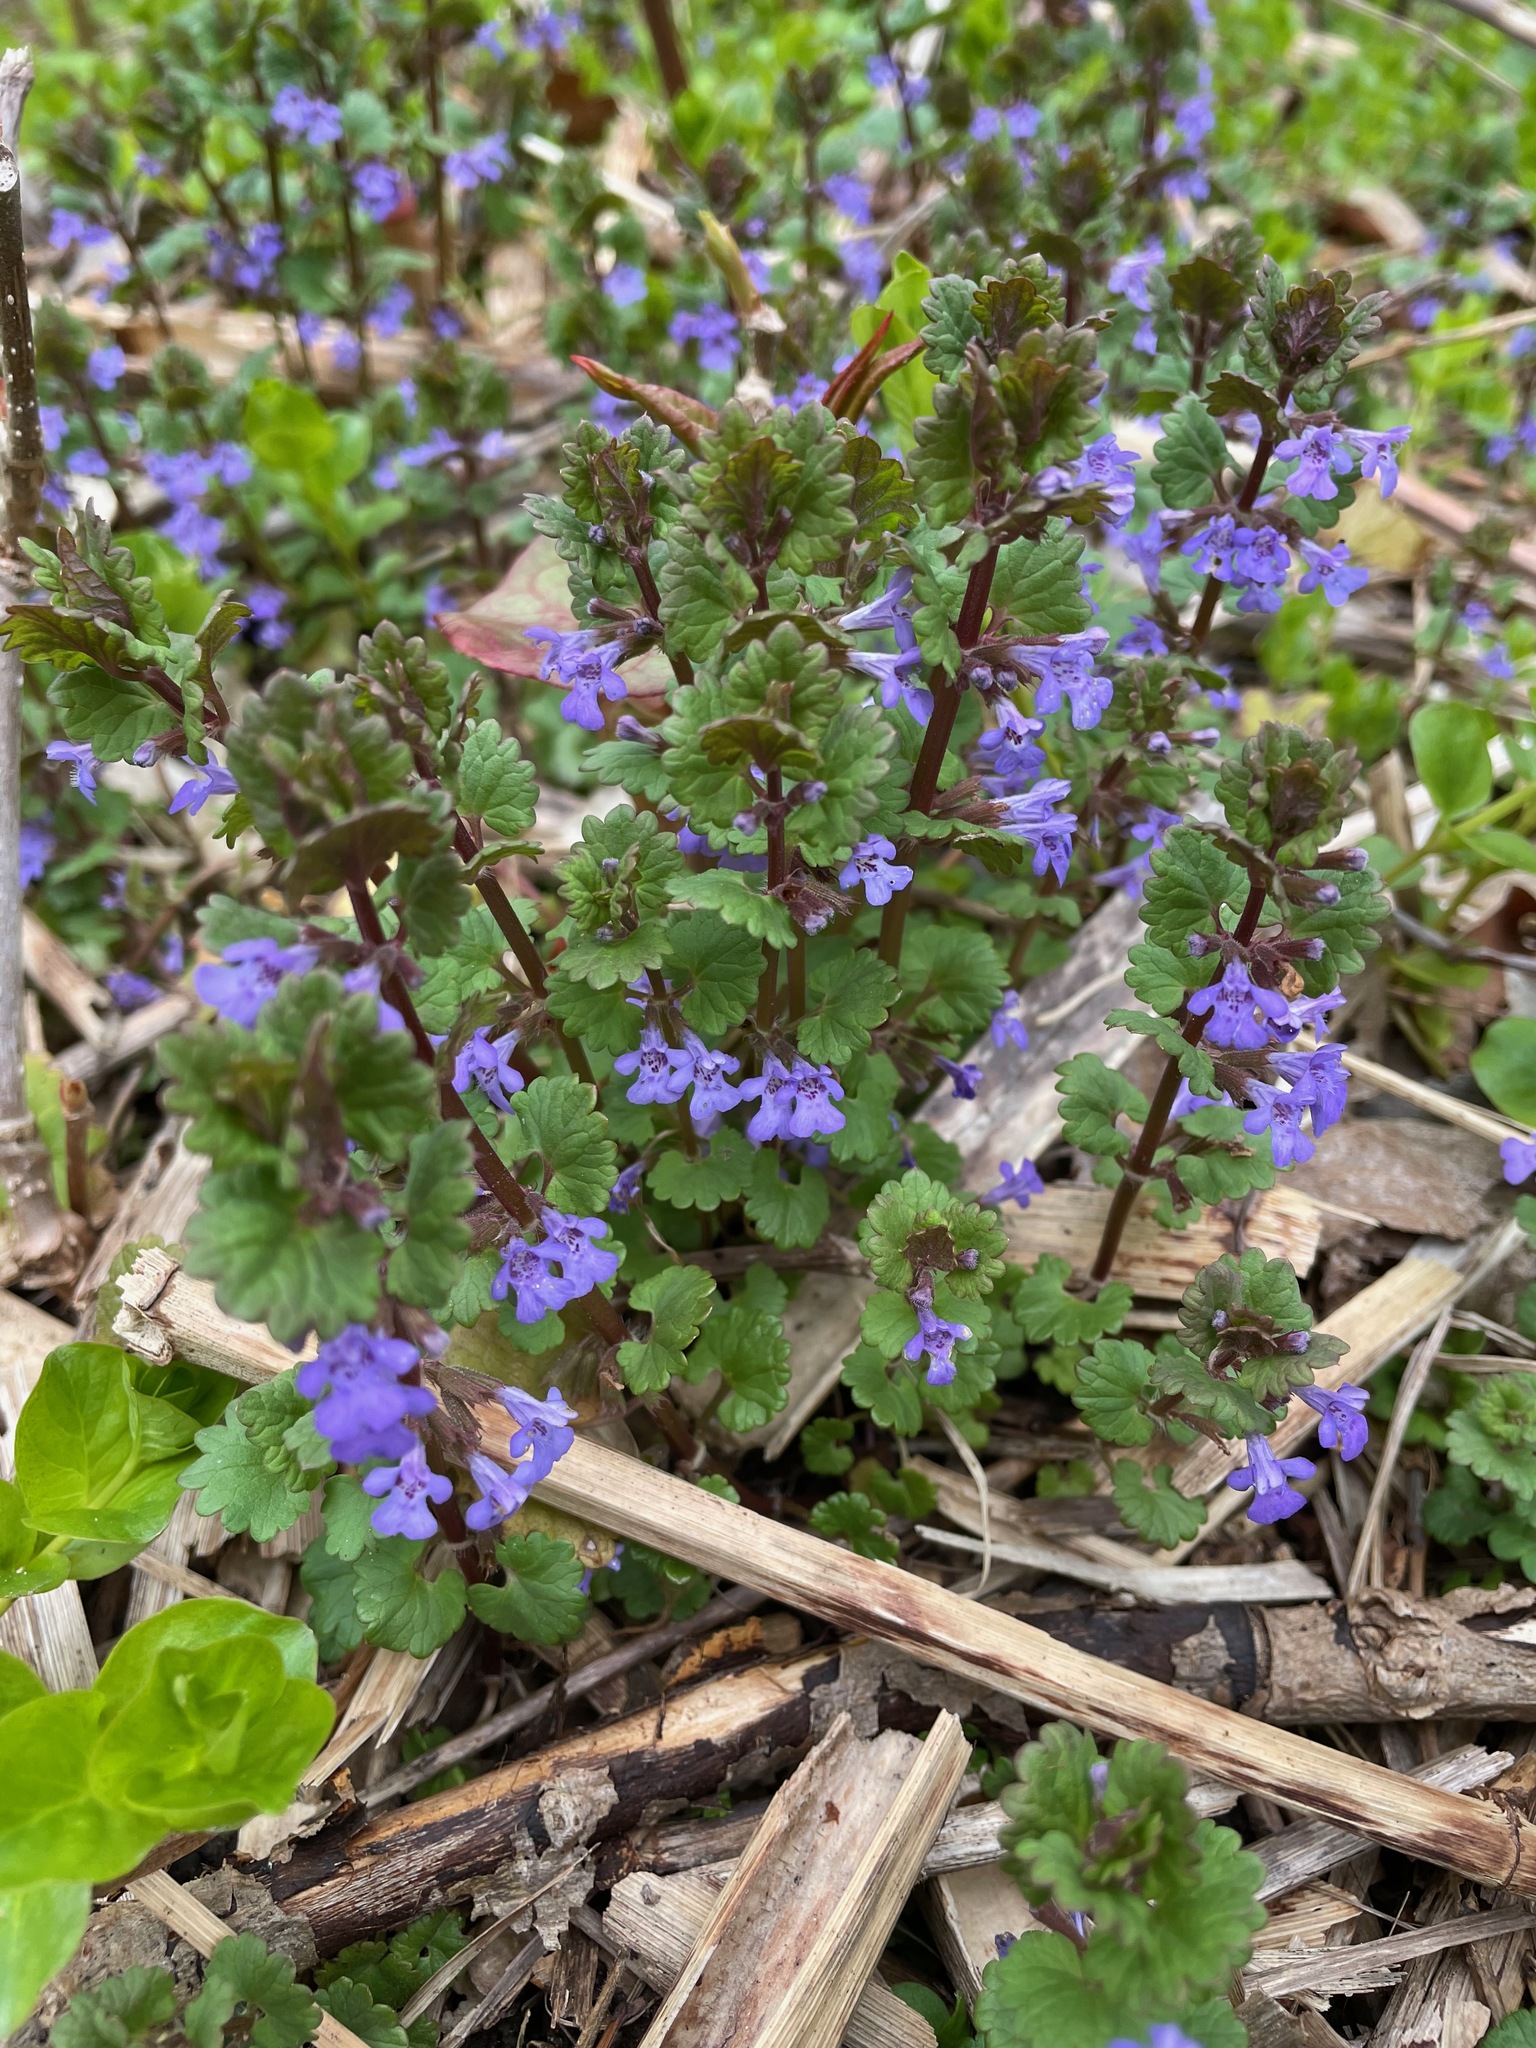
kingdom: Plantae
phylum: Tracheophyta
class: Magnoliopsida
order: Lamiales
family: Lamiaceae
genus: Glechoma
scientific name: Glechoma hederacea
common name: Ground ivy
